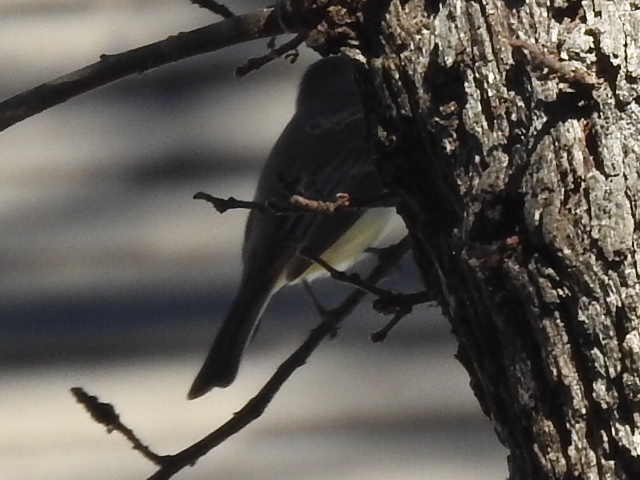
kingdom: Animalia
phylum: Chordata
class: Aves
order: Passeriformes
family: Tyrannidae
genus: Sayornis
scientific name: Sayornis phoebe
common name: Eastern phoebe
